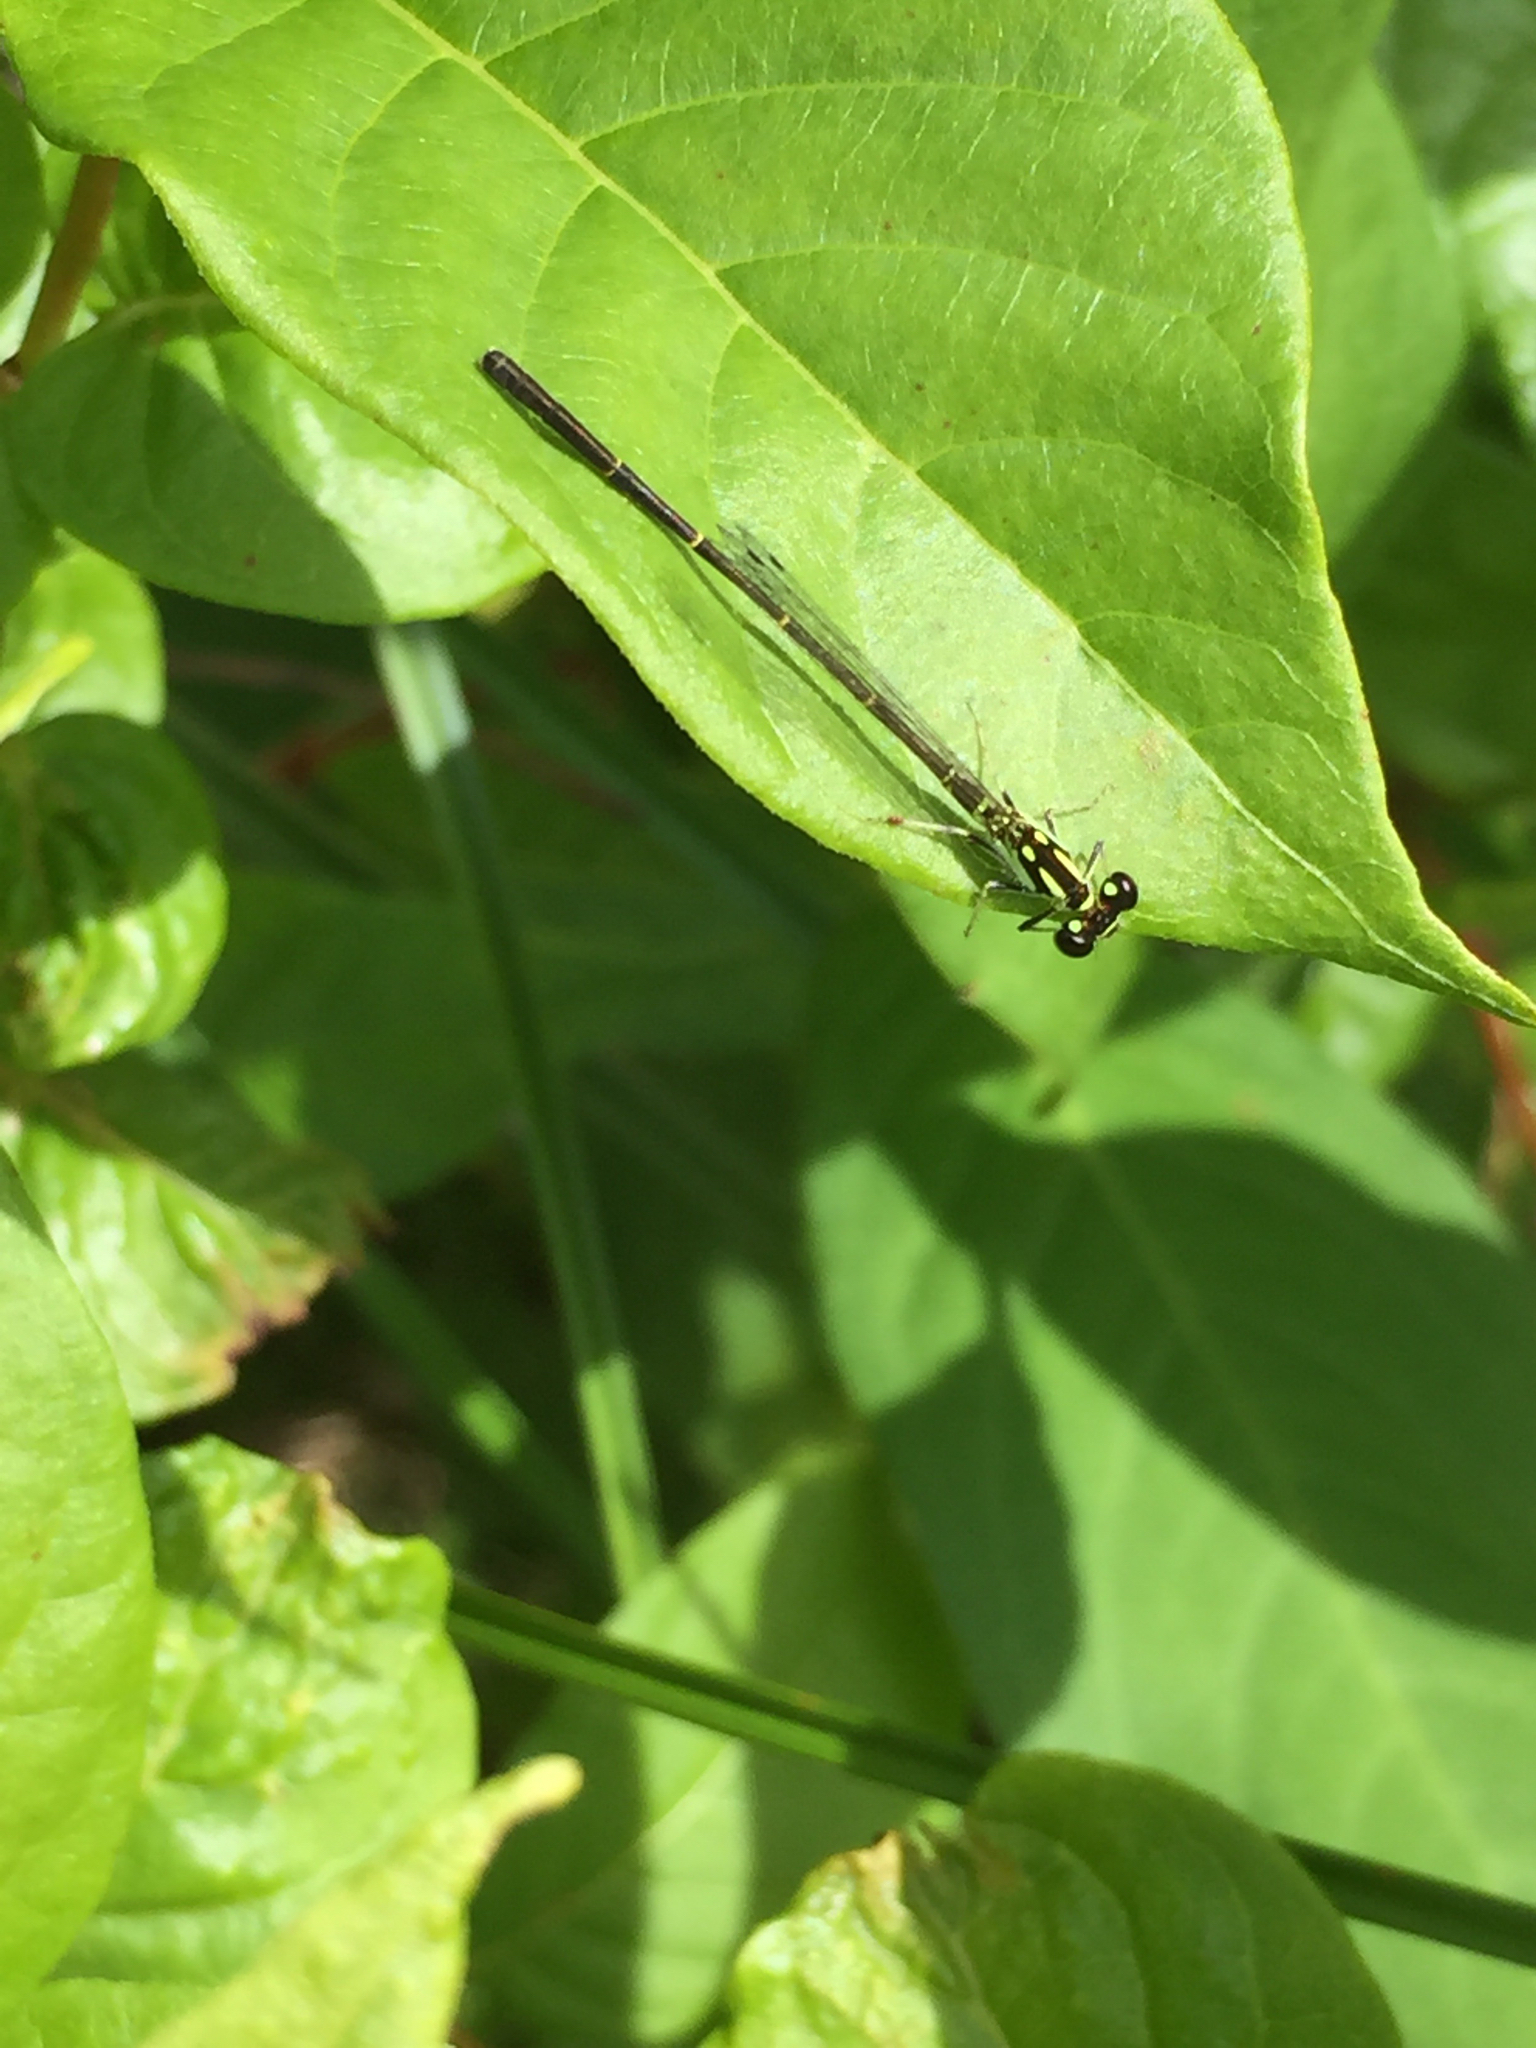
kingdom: Animalia
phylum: Arthropoda
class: Insecta
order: Odonata
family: Coenagrionidae
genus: Ischnura
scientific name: Ischnura posita
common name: Fragile forktail
